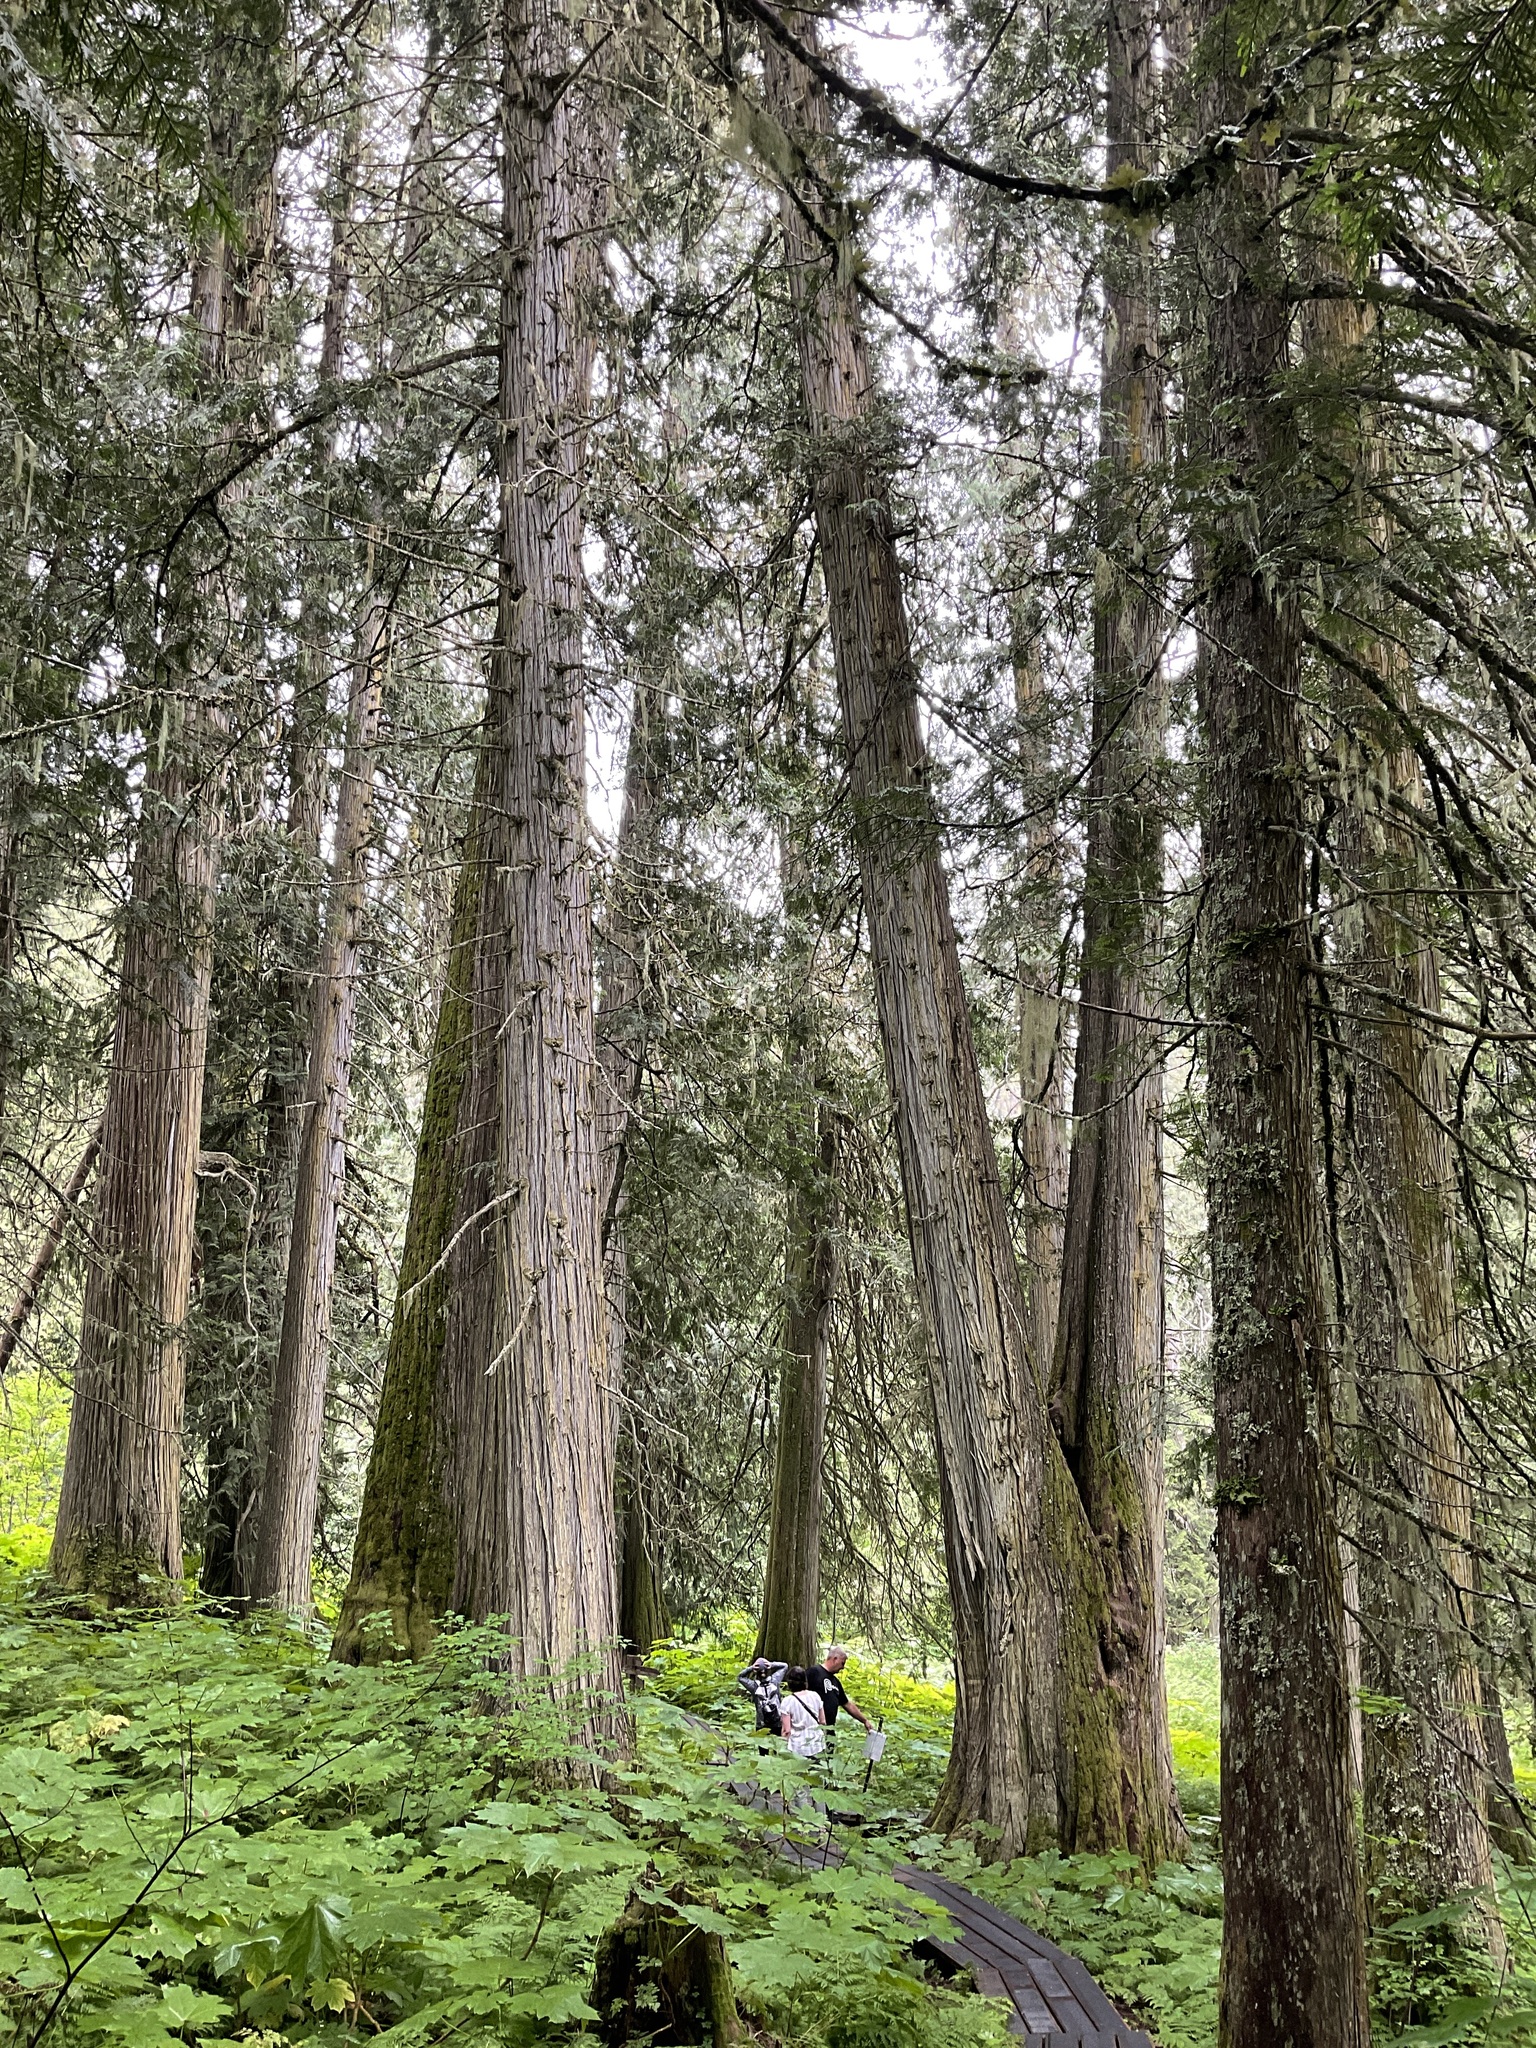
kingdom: Plantae
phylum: Tracheophyta
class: Pinopsida
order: Pinales
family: Cupressaceae
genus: Thuja
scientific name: Thuja plicata
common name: Western red-cedar
